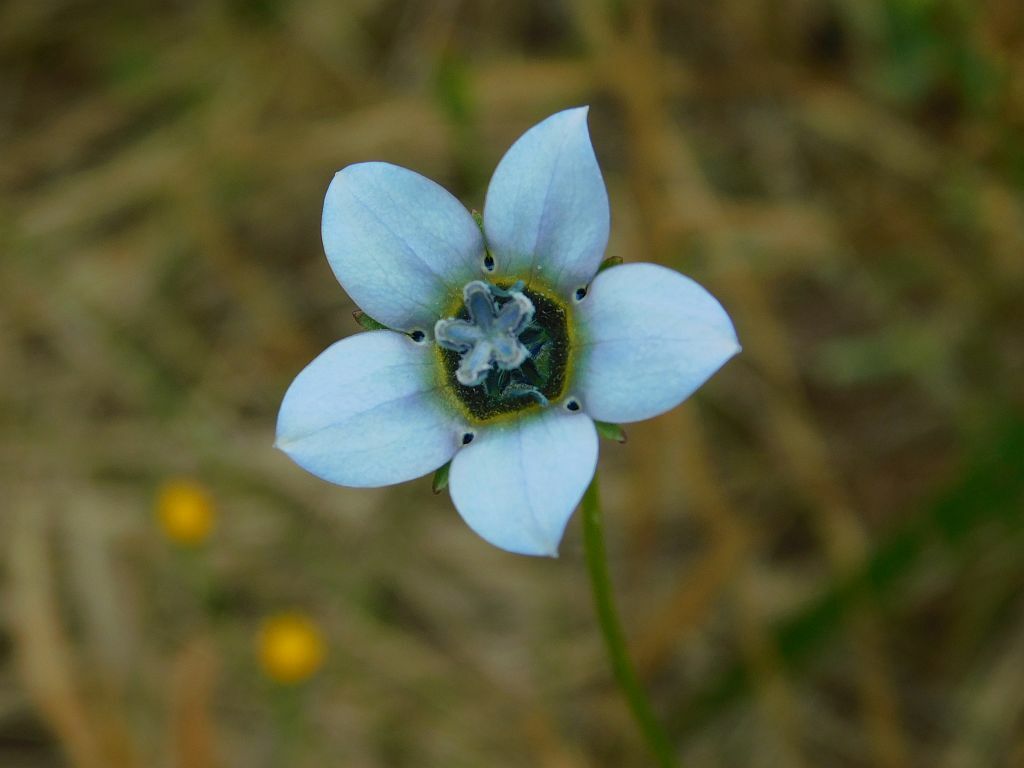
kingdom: Plantae
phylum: Tracheophyta
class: Magnoliopsida
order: Asterales
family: Campanulaceae
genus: Wahlenbergia
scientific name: Wahlenbergia capensis
